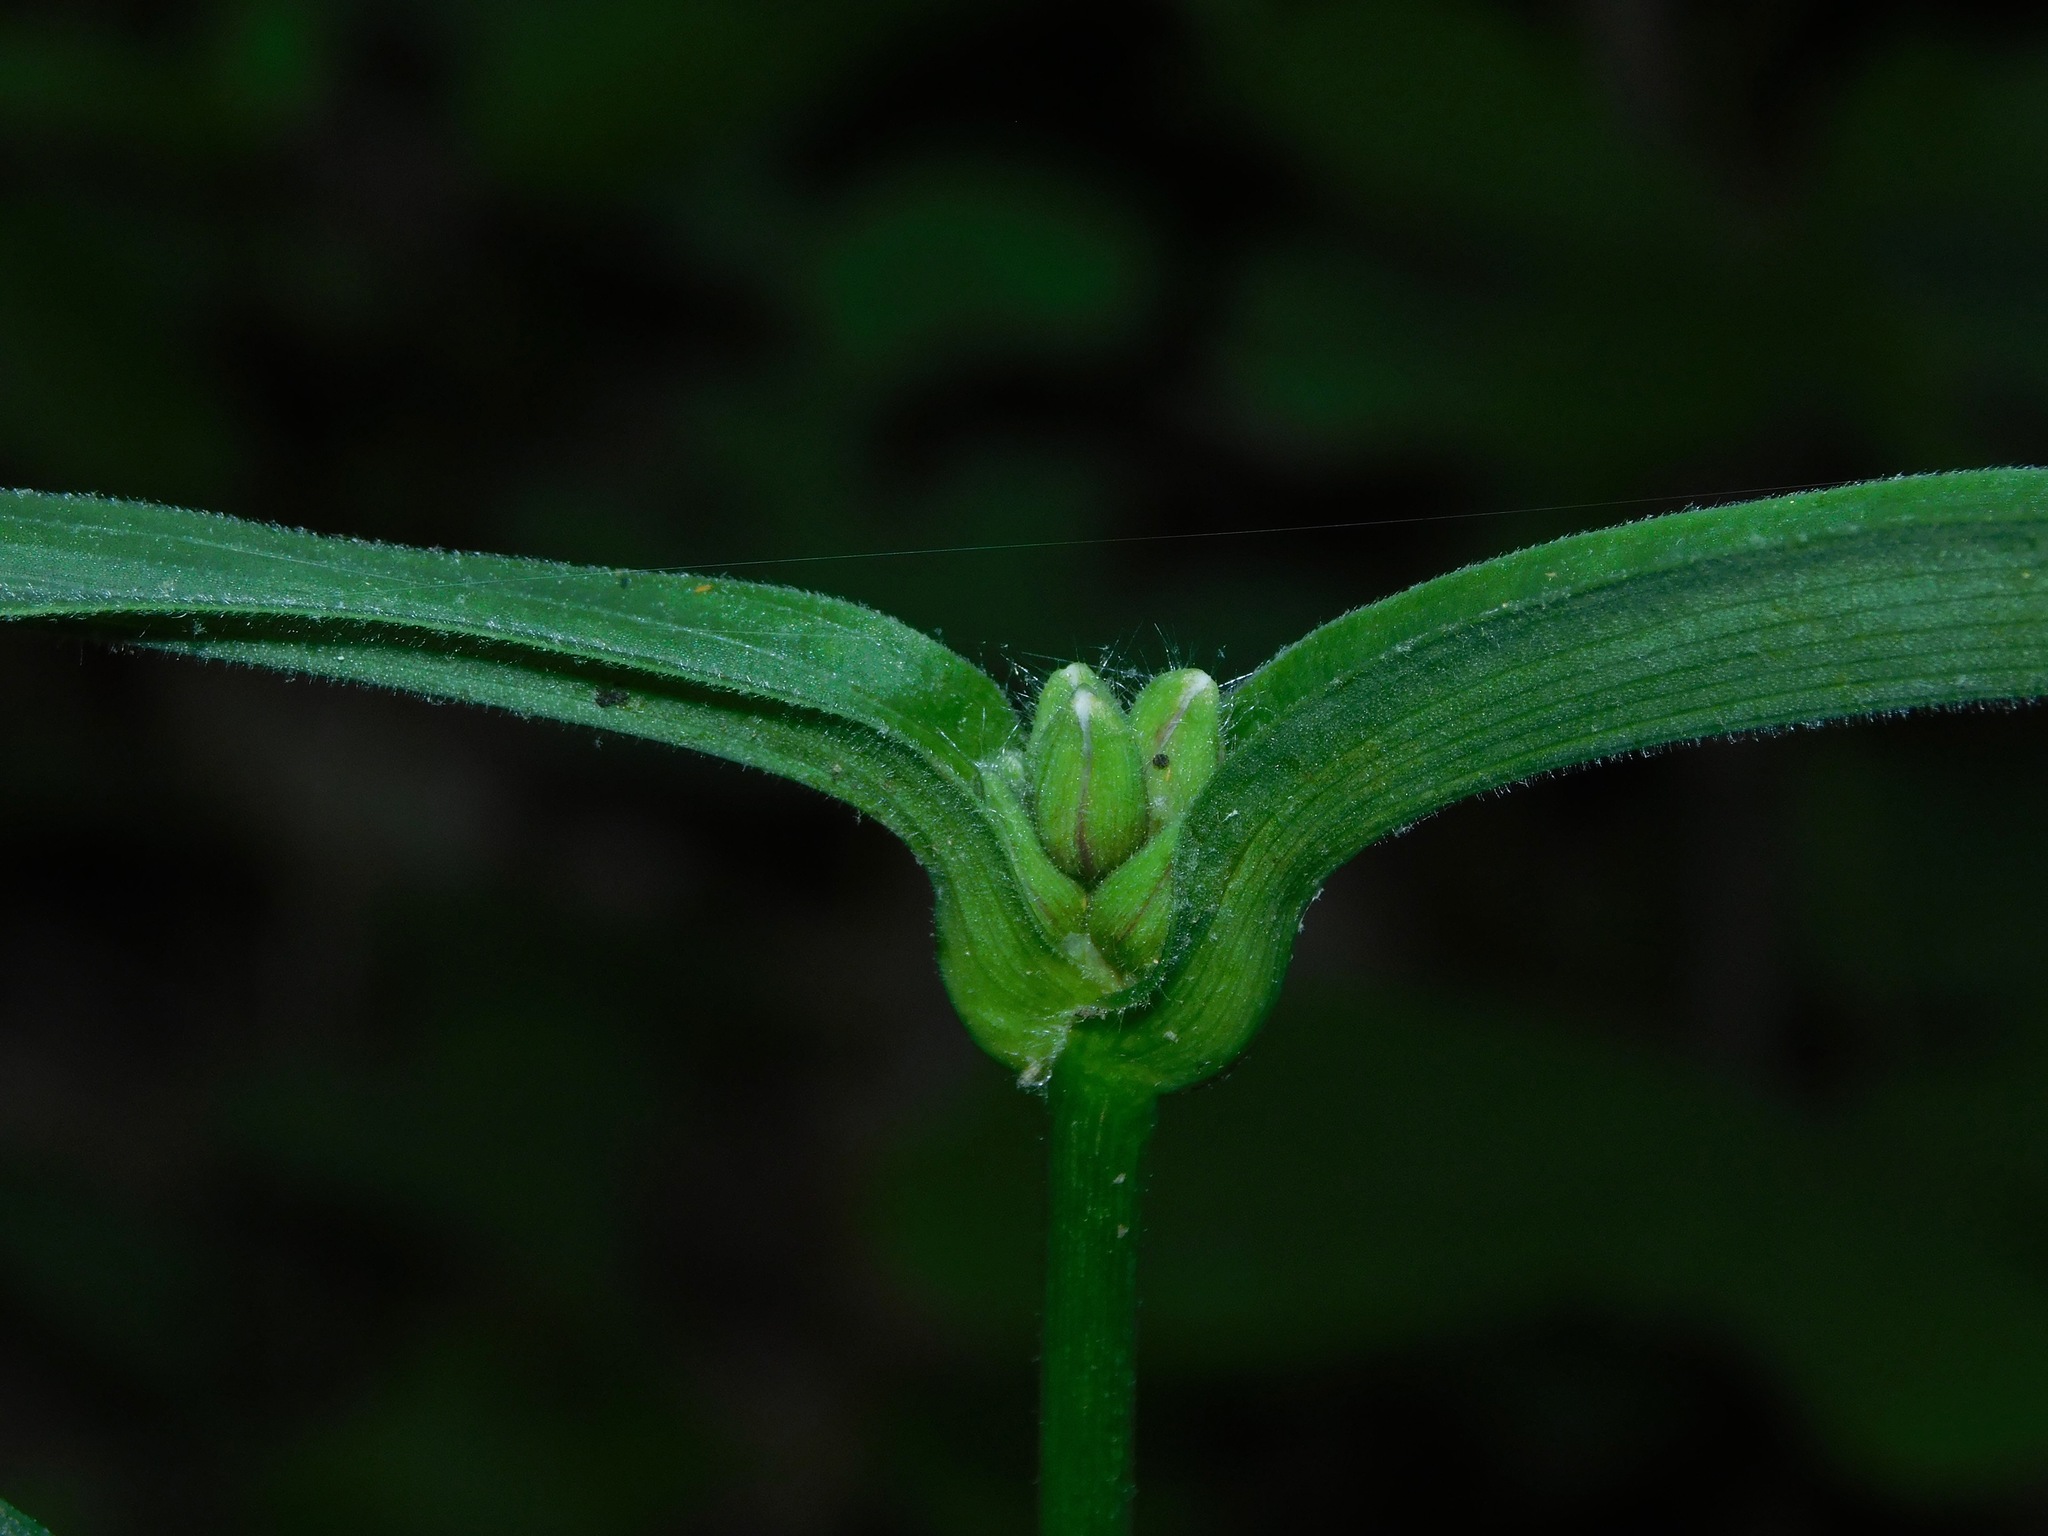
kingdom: Plantae
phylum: Tracheophyta
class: Liliopsida
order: Commelinales
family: Commelinaceae
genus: Tradescantia
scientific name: Tradescantia subaspera
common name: Wide-leaf spiderwort
